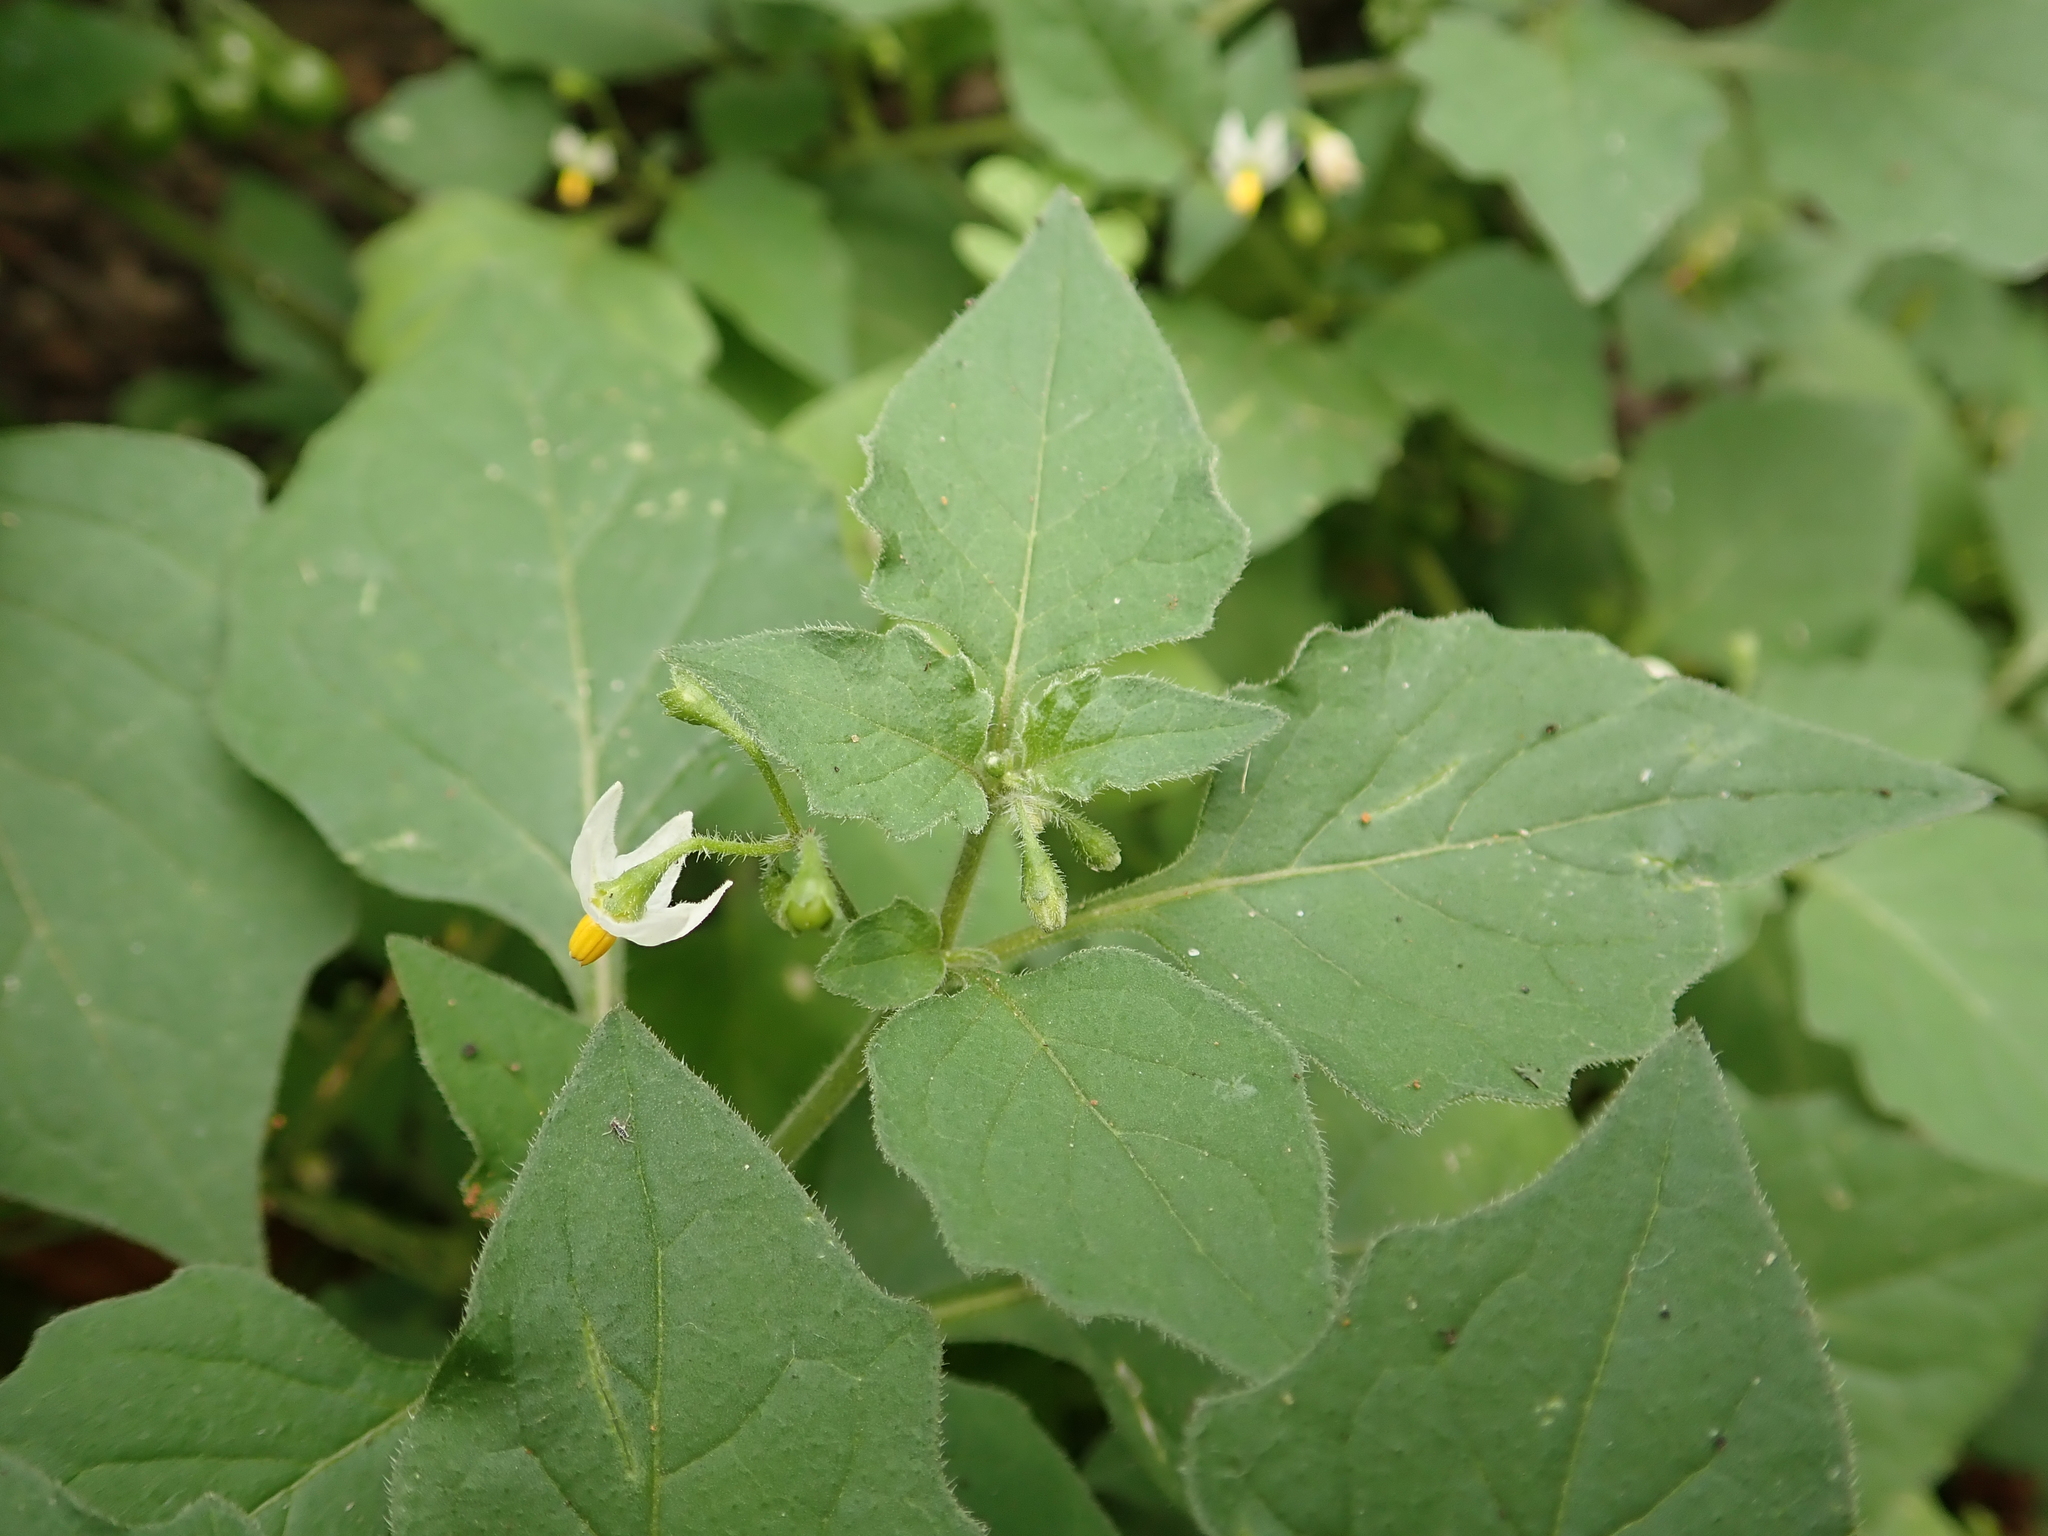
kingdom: Plantae
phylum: Tracheophyta
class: Magnoliopsida
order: Solanales
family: Solanaceae
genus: Solanum
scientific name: Solanum nigrum
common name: Black nightshade
